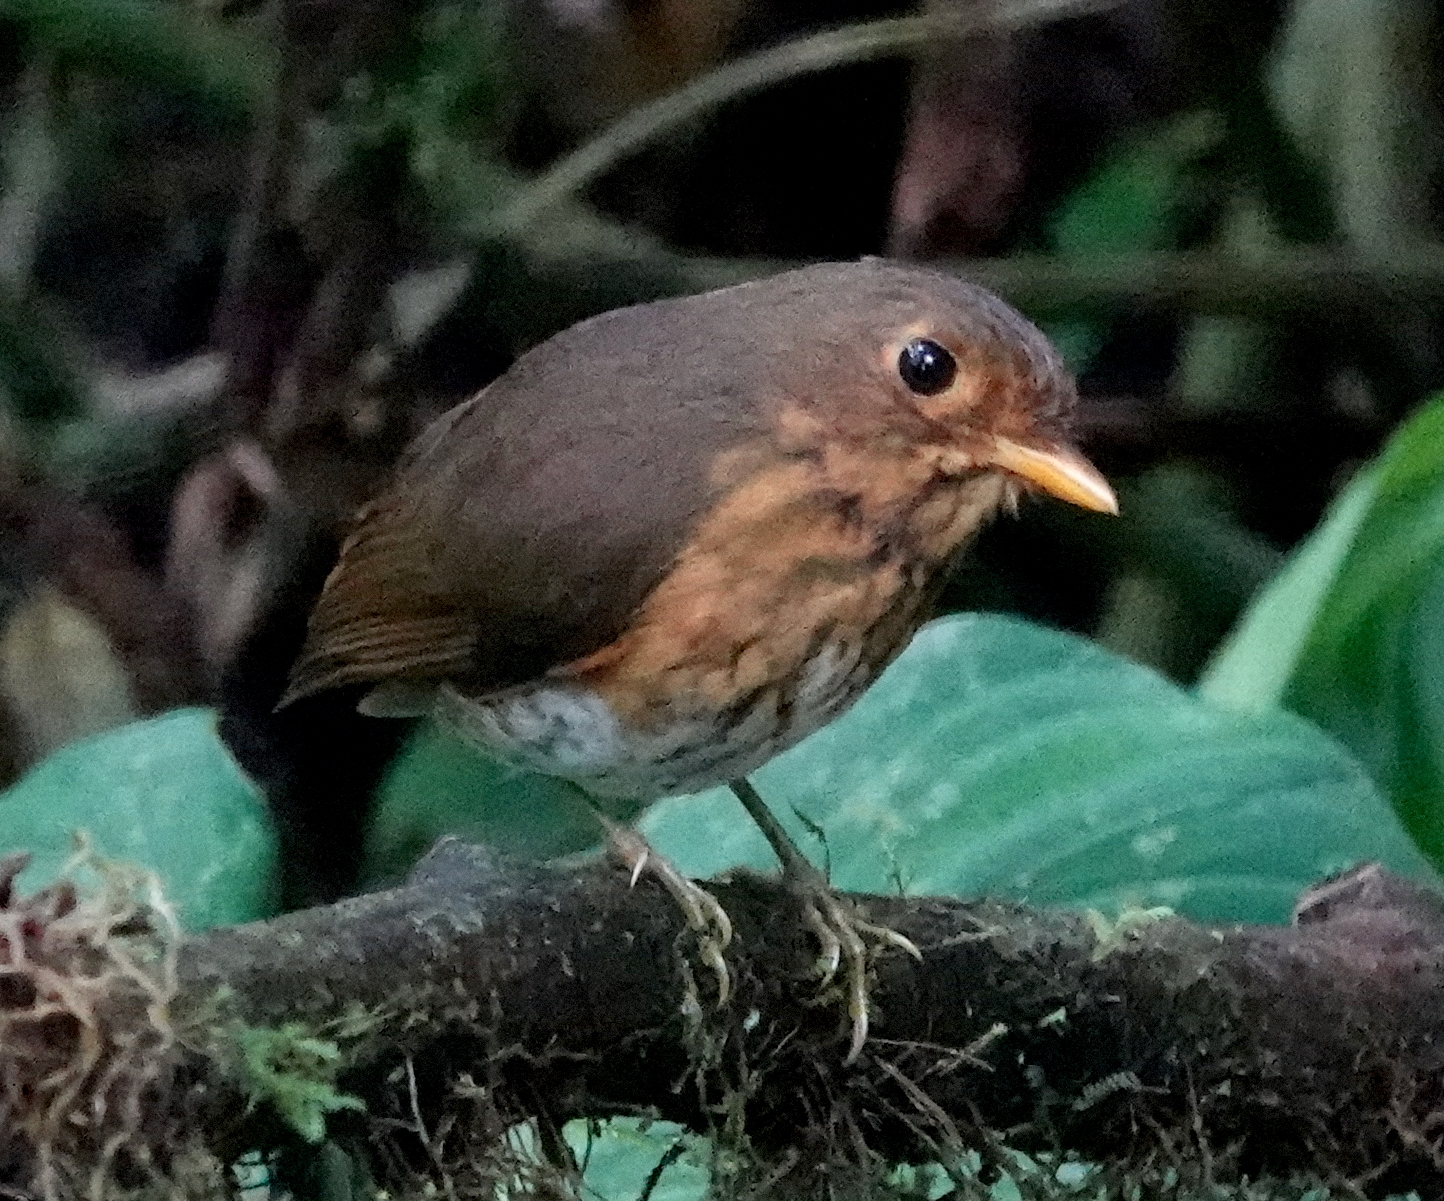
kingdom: Animalia
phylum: Chordata
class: Aves
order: Passeriformes
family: Grallariidae
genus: Grallaricula
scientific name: Grallaricula flavirostris
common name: Ochre-breasted antpitta
